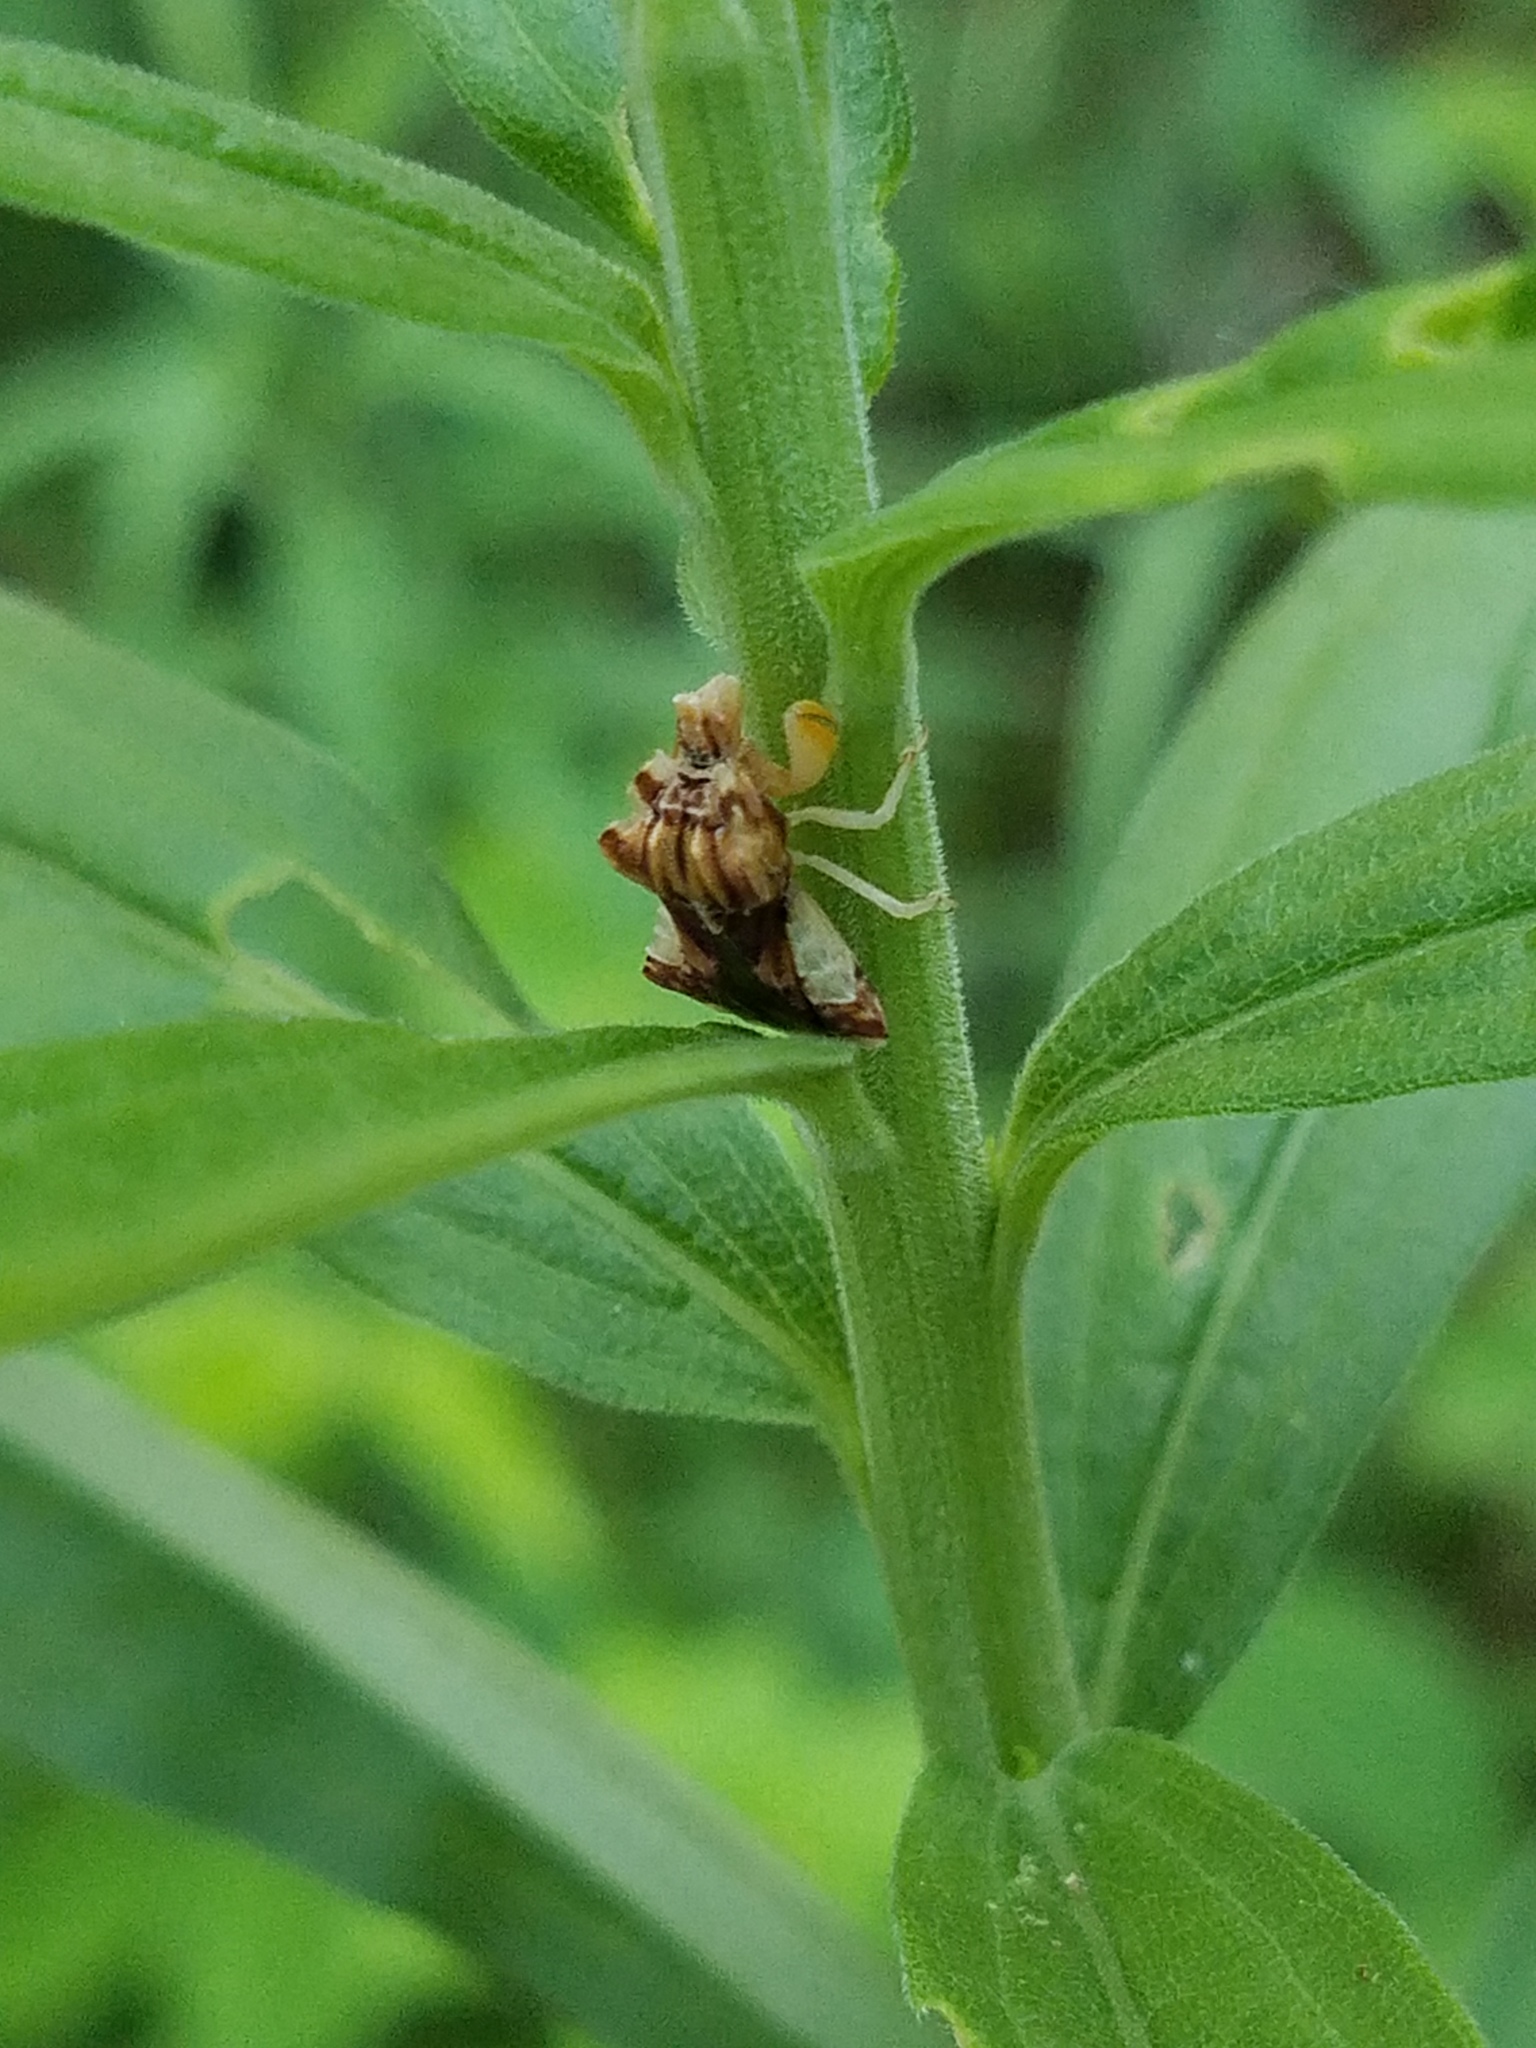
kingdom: Animalia
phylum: Arthropoda
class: Insecta
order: Hemiptera
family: Reduviidae
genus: Phymata
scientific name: Phymata fasciata
